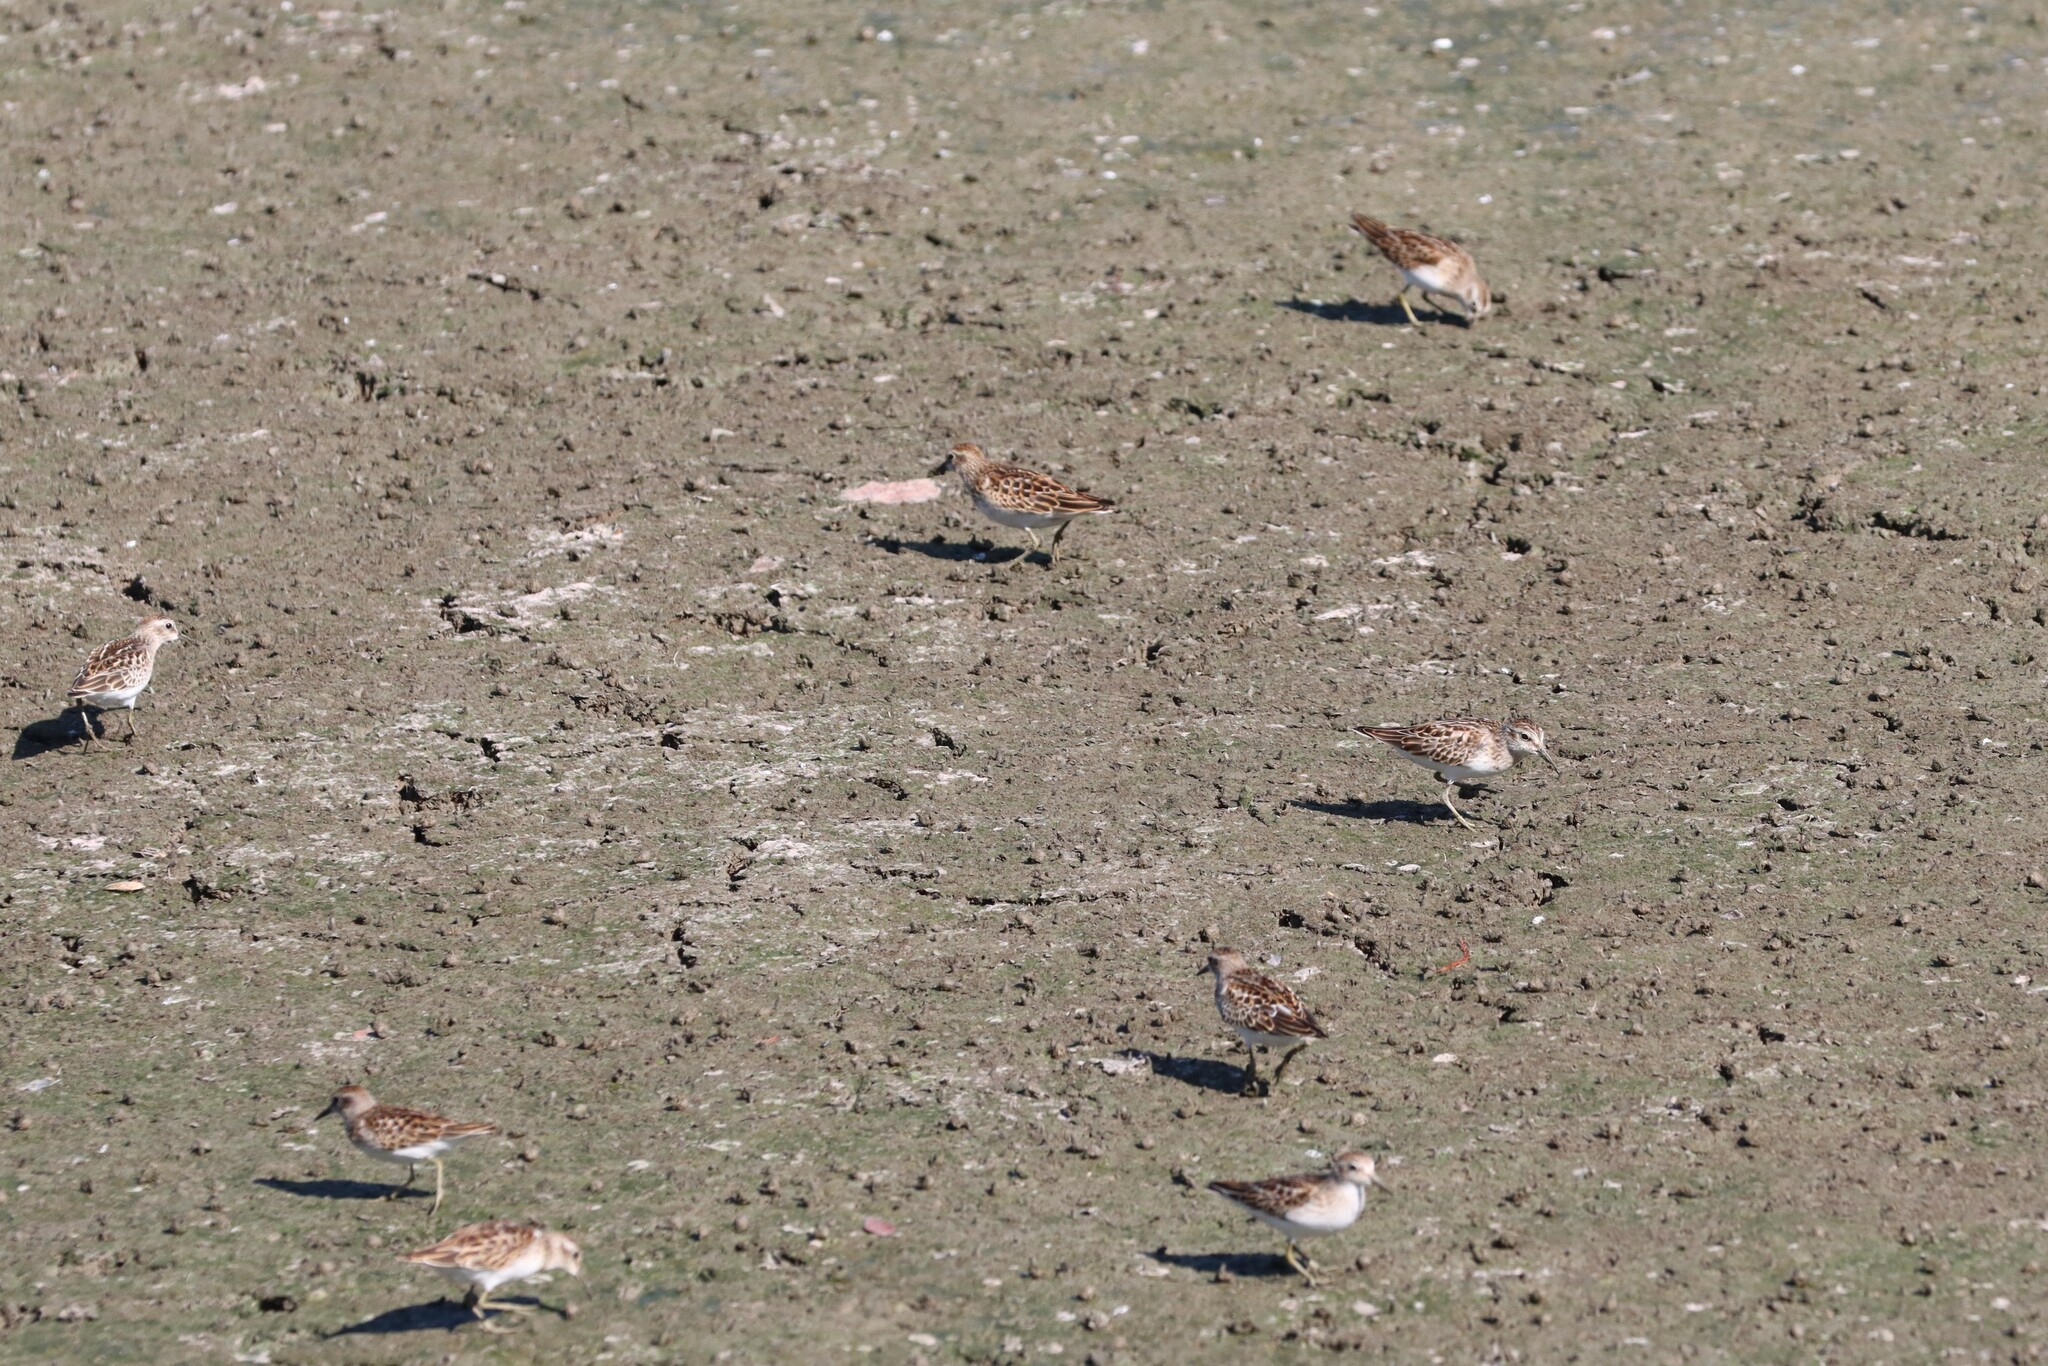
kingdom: Animalia
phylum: Chordata
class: Aves
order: Charadriiformes
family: Scolopacidae
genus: Calidris
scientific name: Calidris minutilla
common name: Least sandpiper
